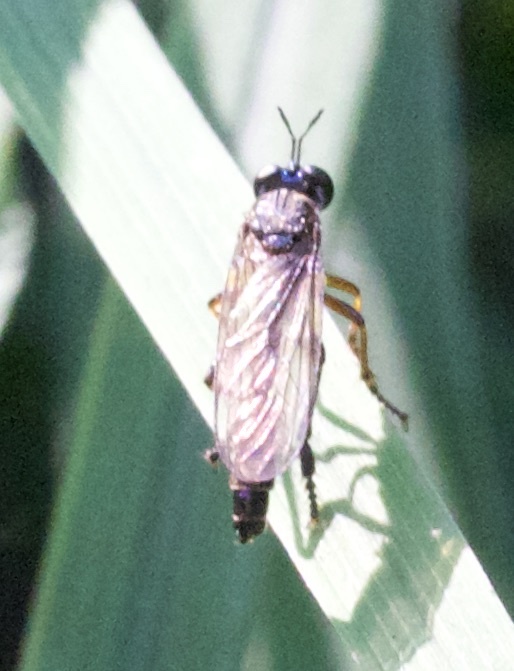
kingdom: Animalia
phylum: Arthropoda
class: Insecta
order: Diptera
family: Asilidae
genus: Dioctria
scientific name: Dioctria hyalipennis
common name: Stripe-legged robberfly
